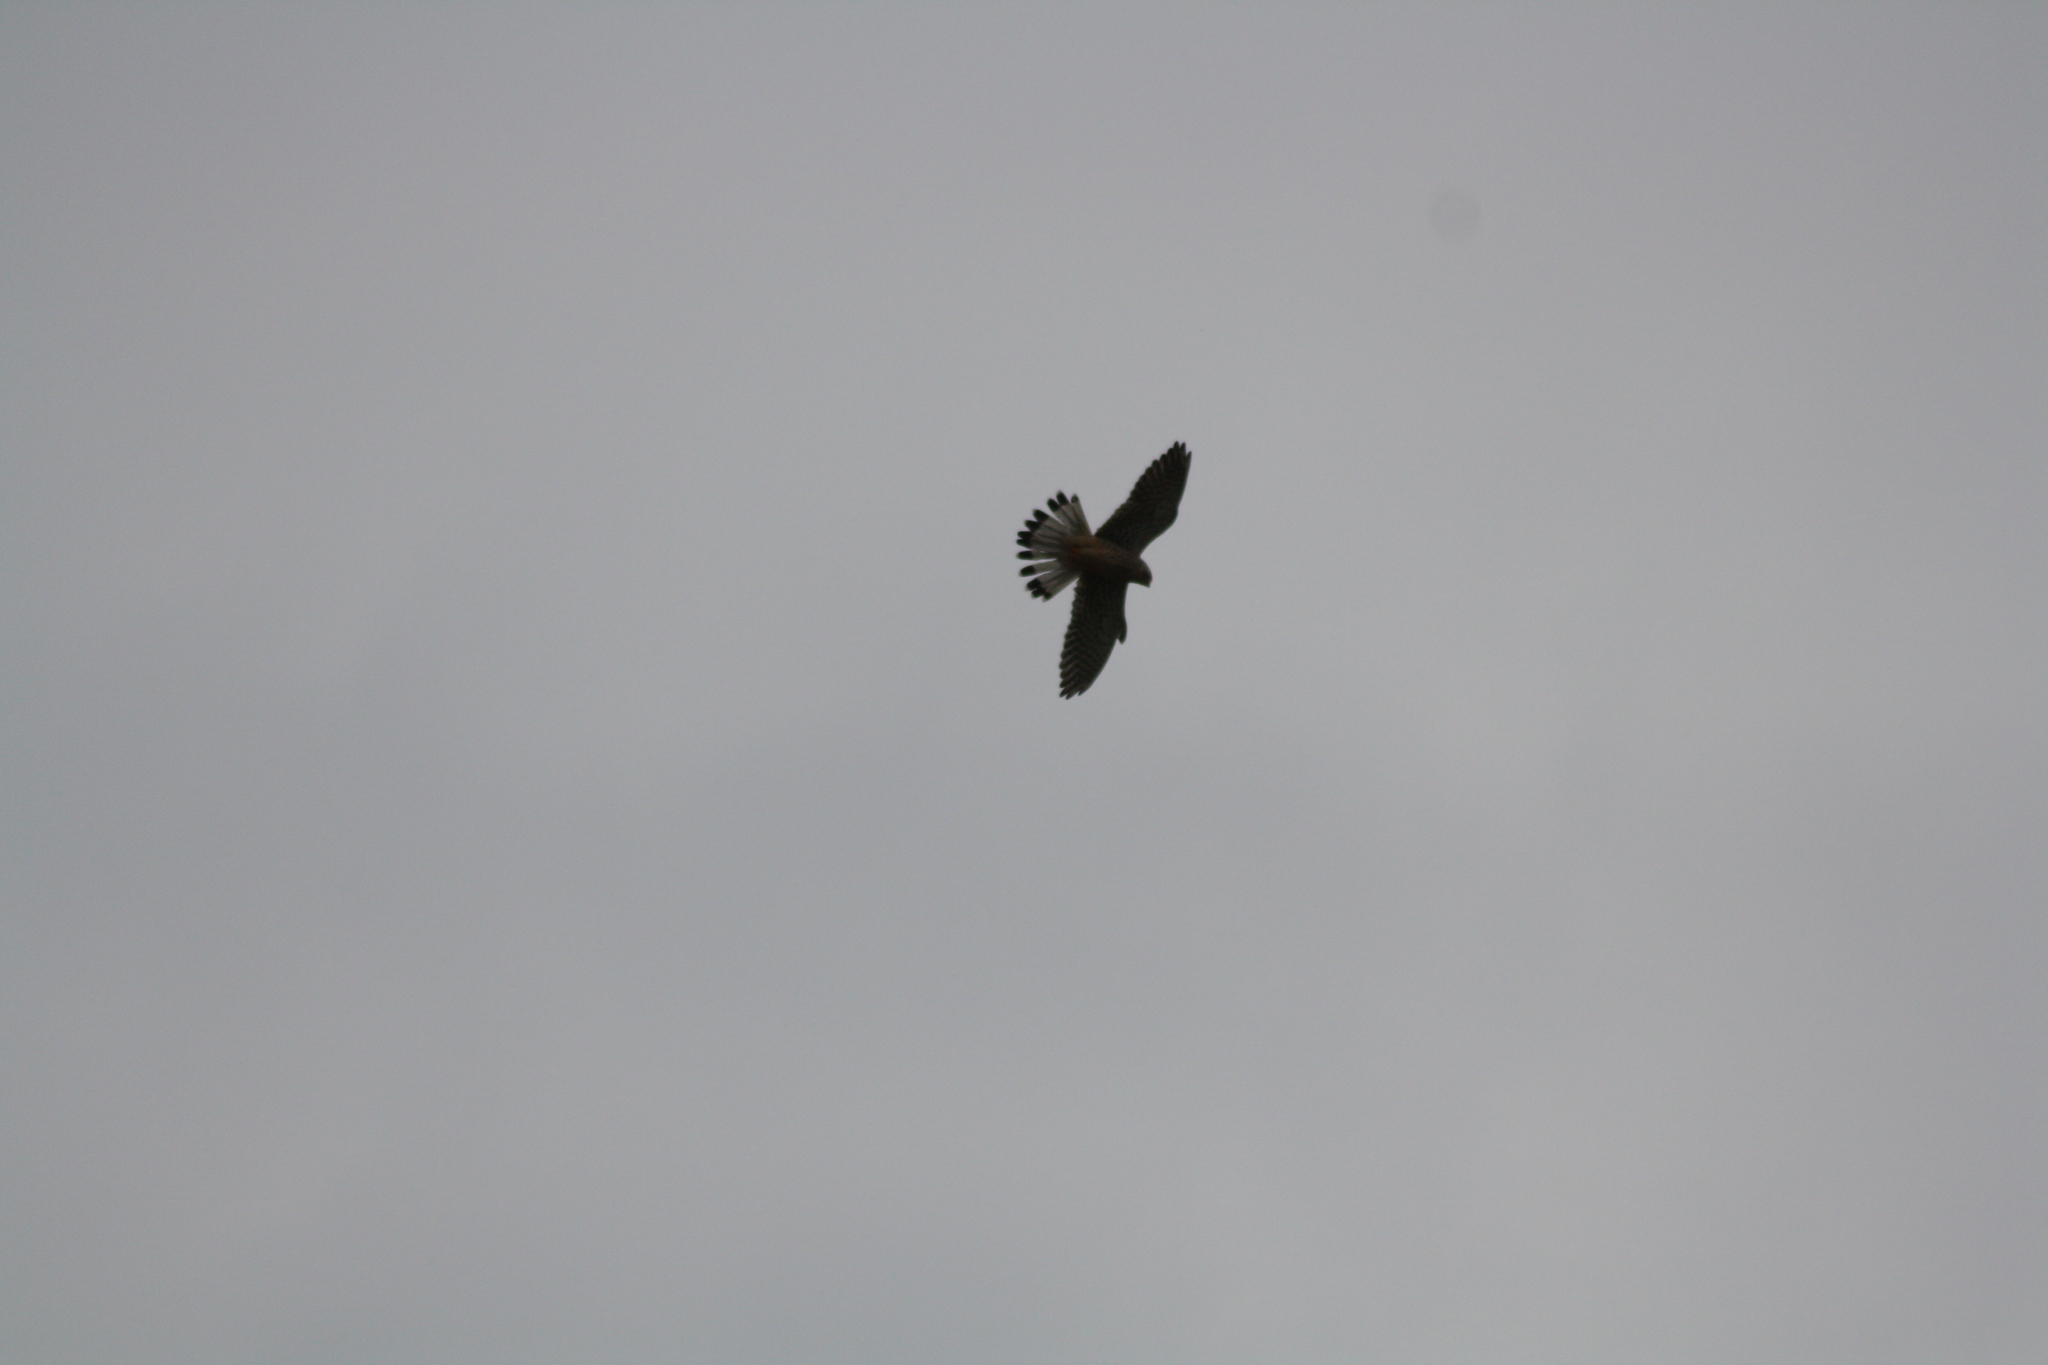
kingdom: Animalia
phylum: Chordata
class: Aves
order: Falconiformes
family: Falconidae
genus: Falco
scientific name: Falco tinnunculus
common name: Common kestrel
